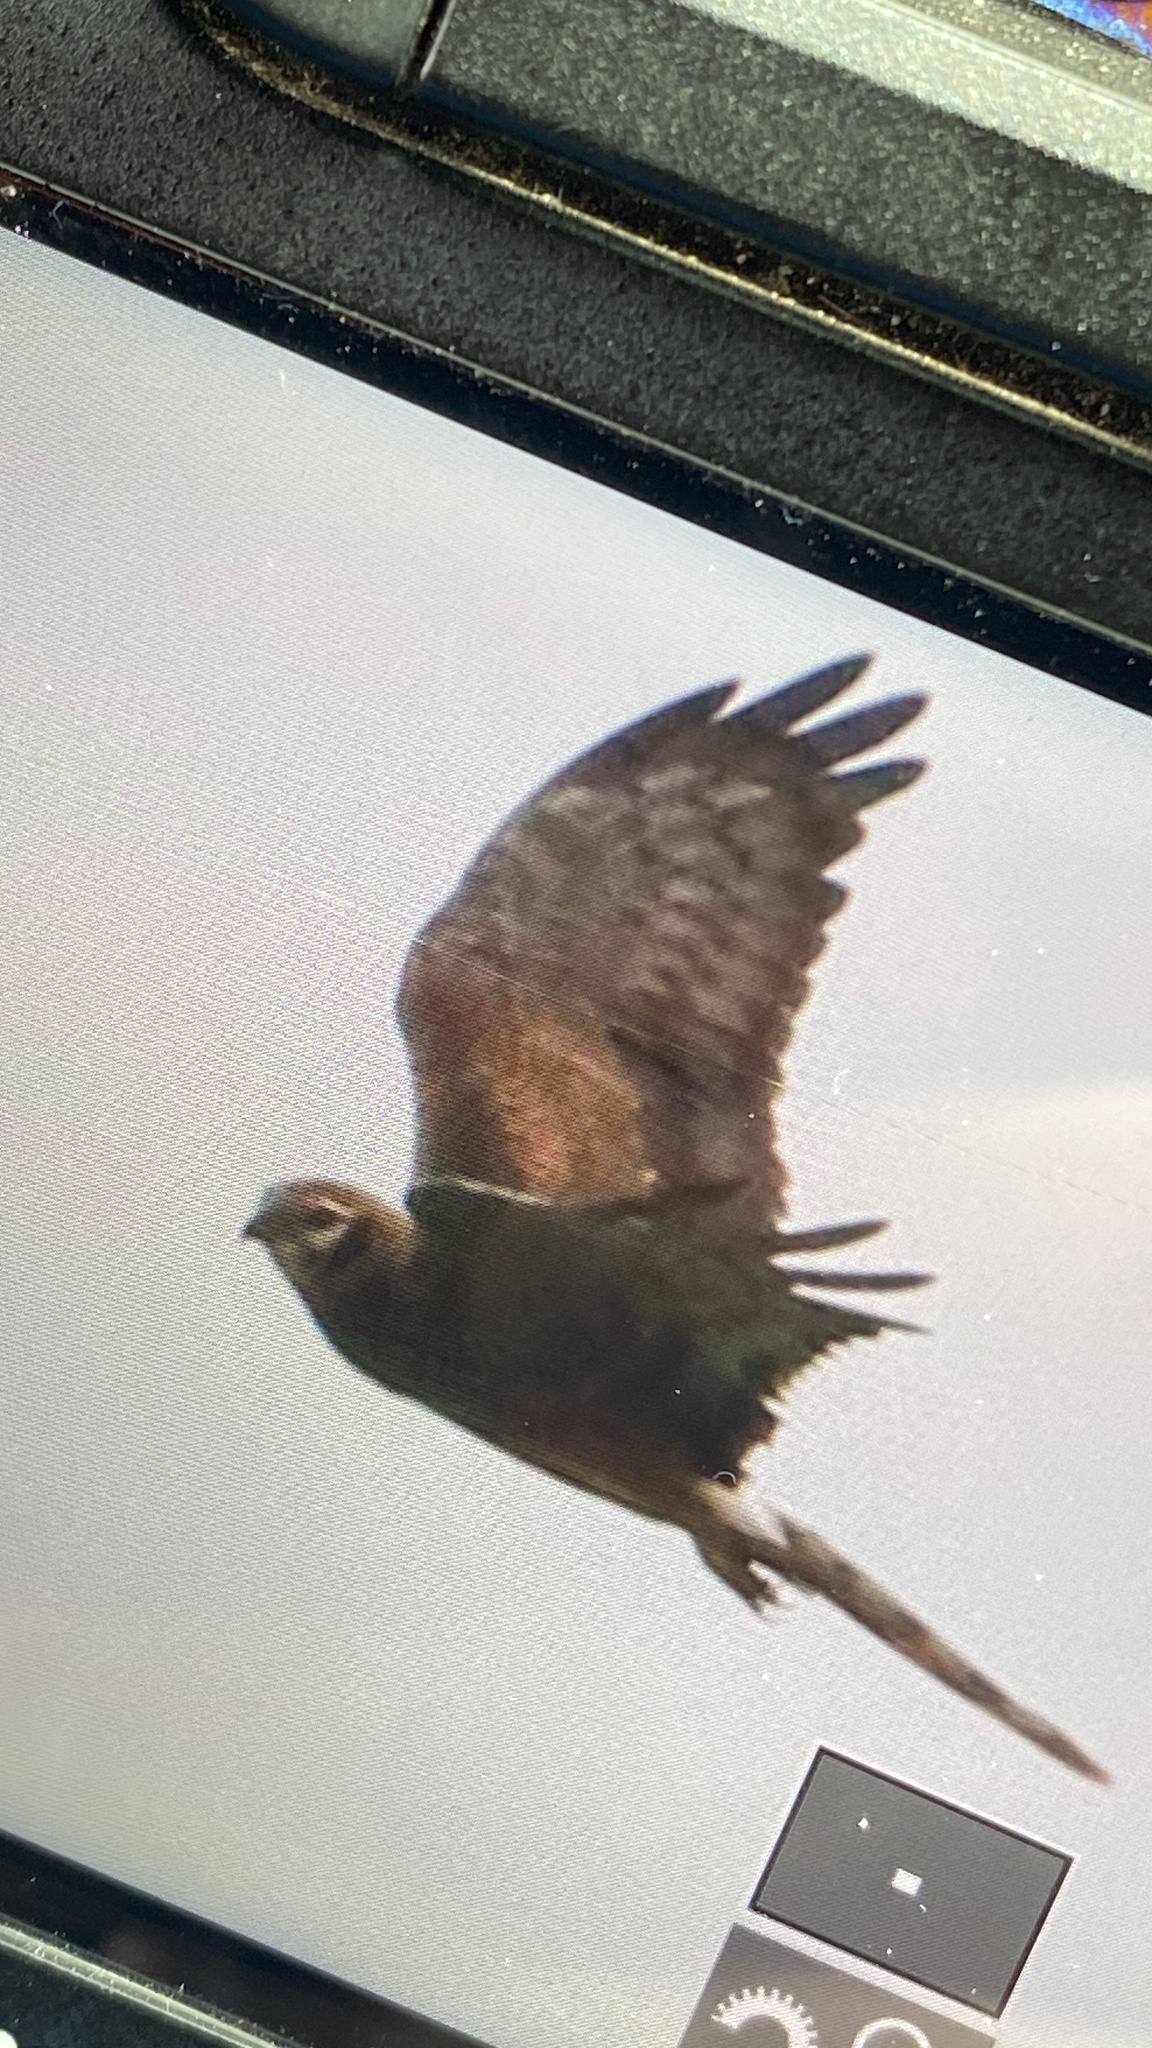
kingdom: Animalia
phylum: Chordata
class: Aves
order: Accipitriformes
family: Accipitridae
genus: Circus
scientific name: Circus pygargus
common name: Montagu's harrier
